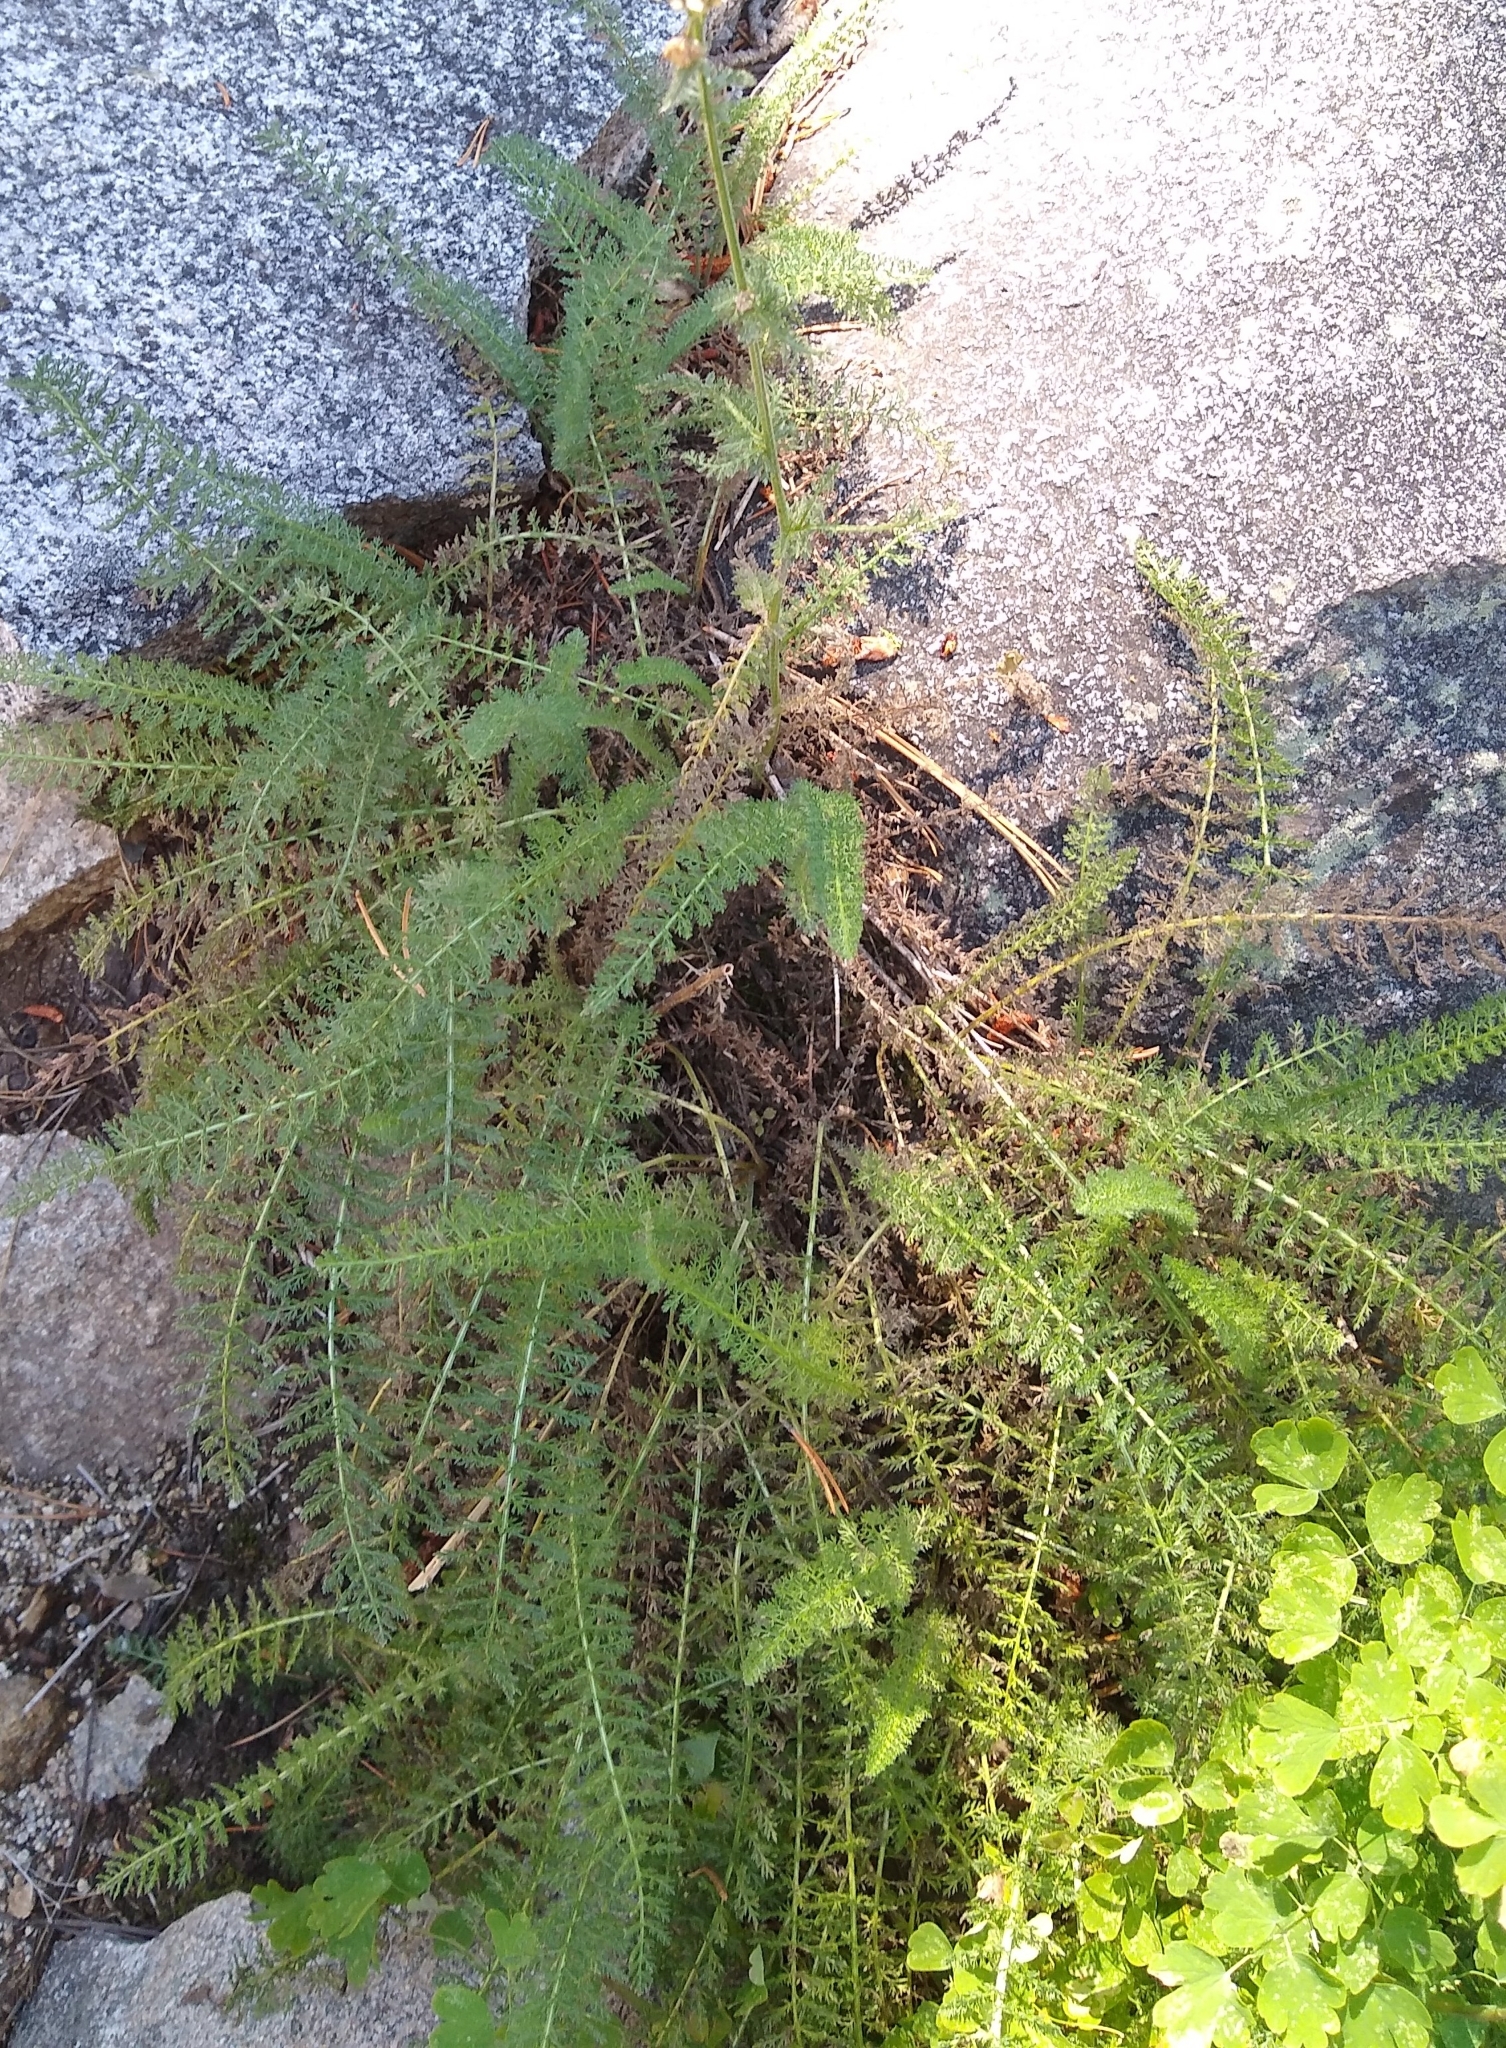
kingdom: Plantae
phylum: Tracheophyta
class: Magnoliopsida
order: Asterales
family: Asteraceae
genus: Achillea
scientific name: Achillea millefolium
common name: Yarrow
